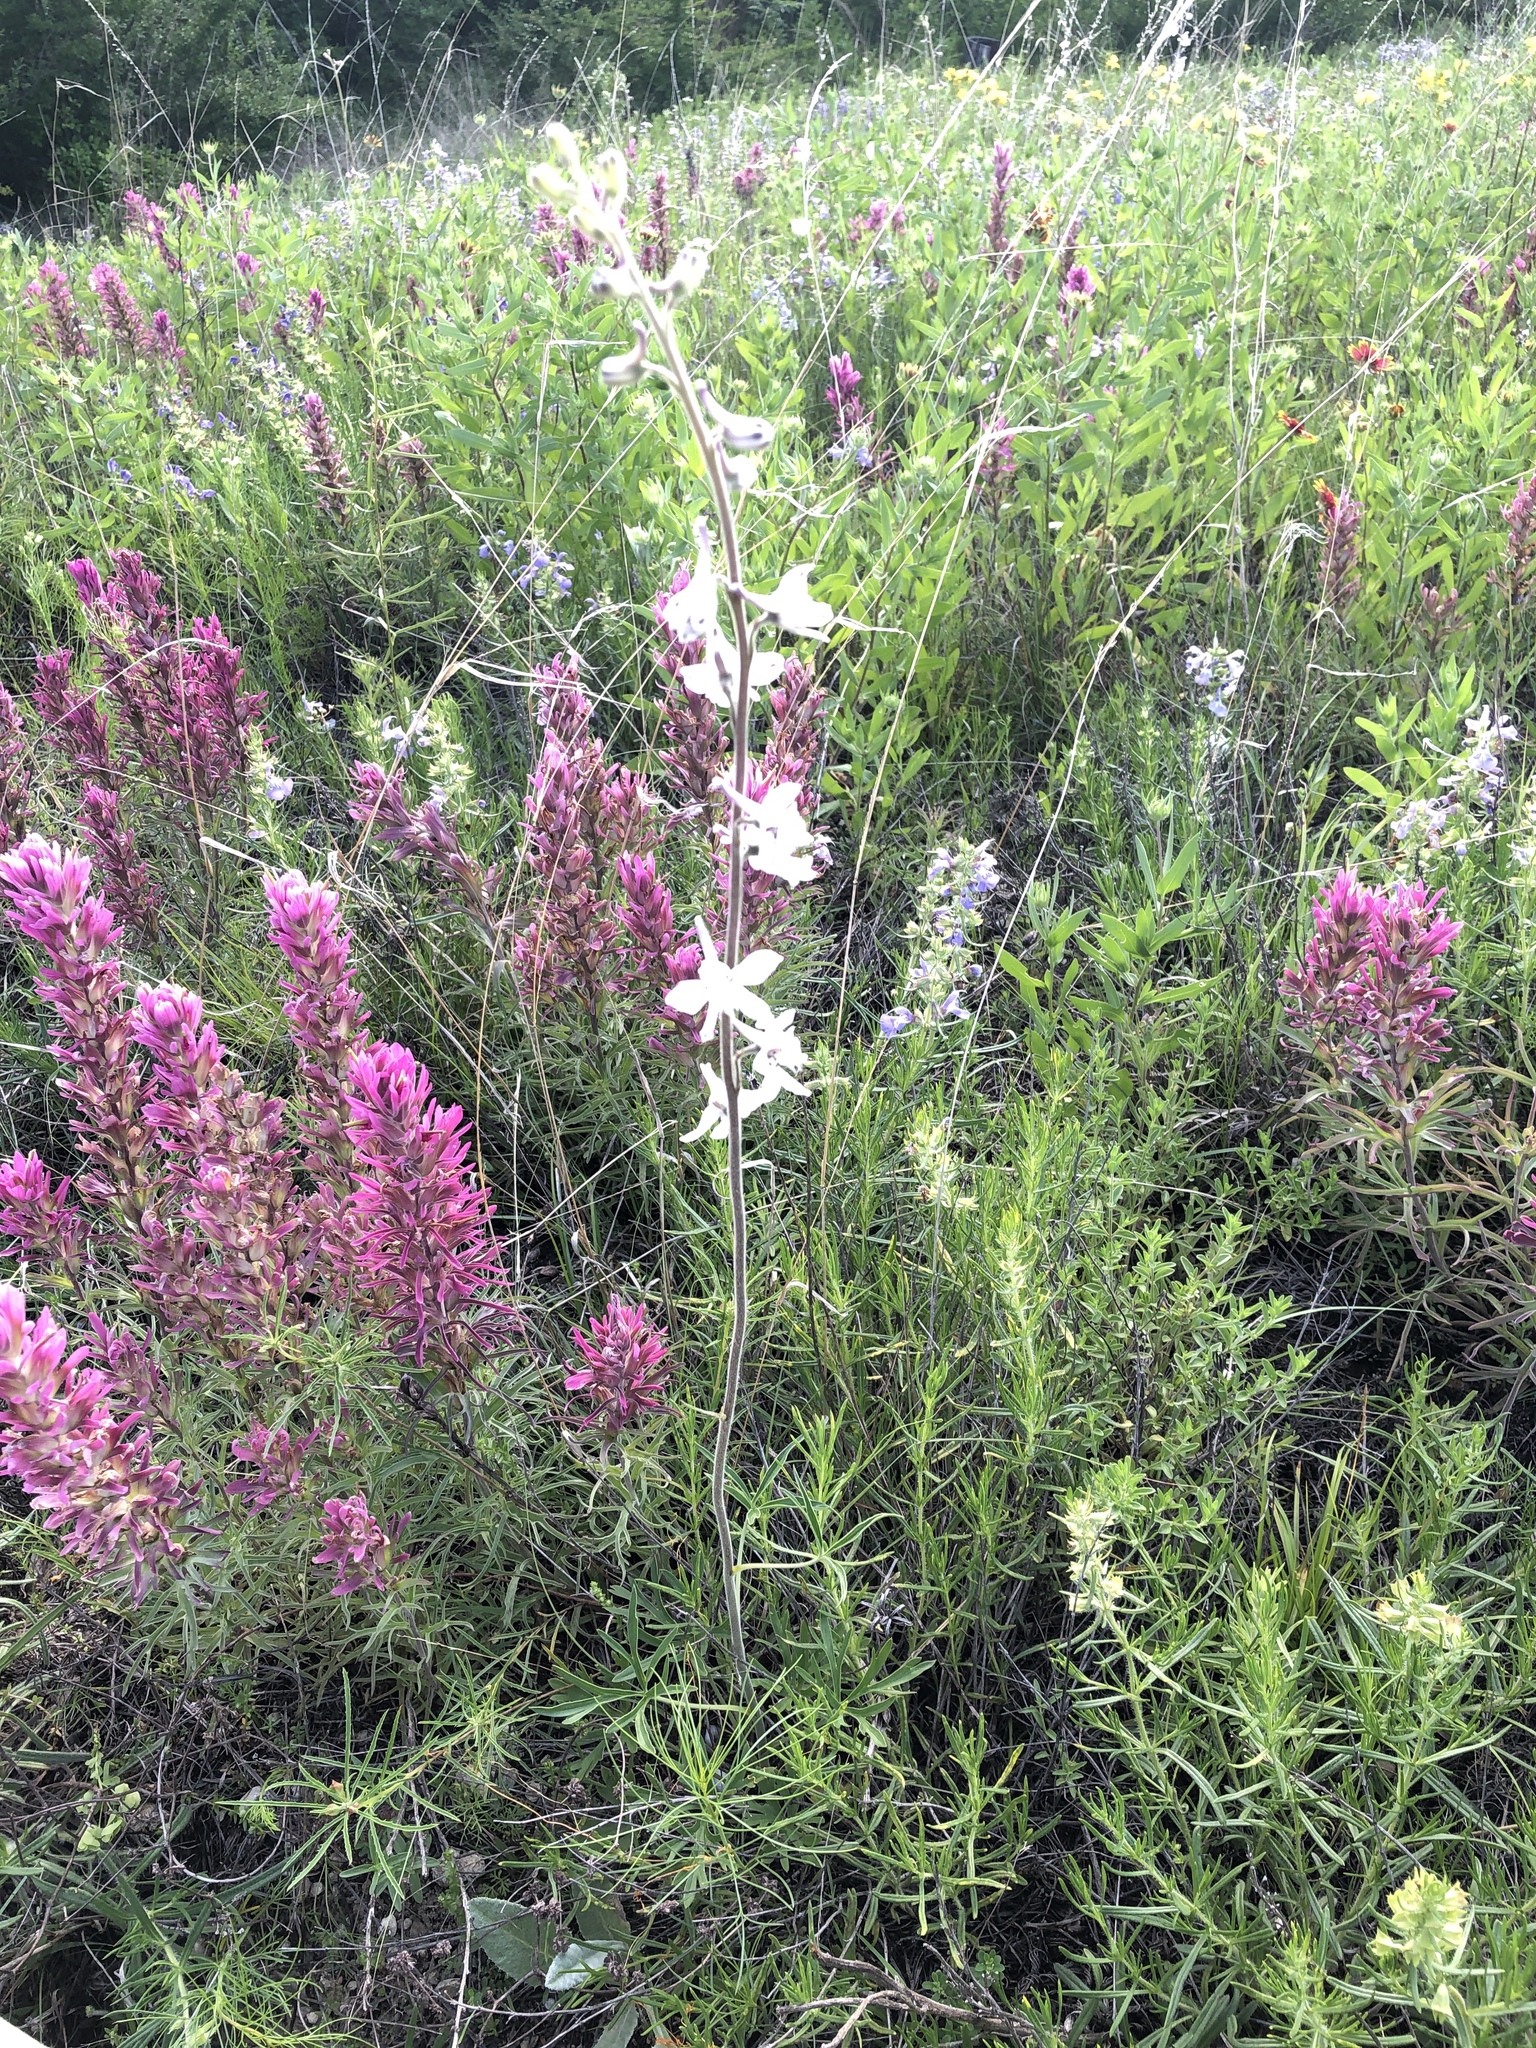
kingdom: Plantae
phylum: Tracheophyta
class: Magnoliopsida
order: Ranunculales
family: Ranunculaceae
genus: Delphinium
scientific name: Delphinium carolinianum
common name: Carolina larkspur
